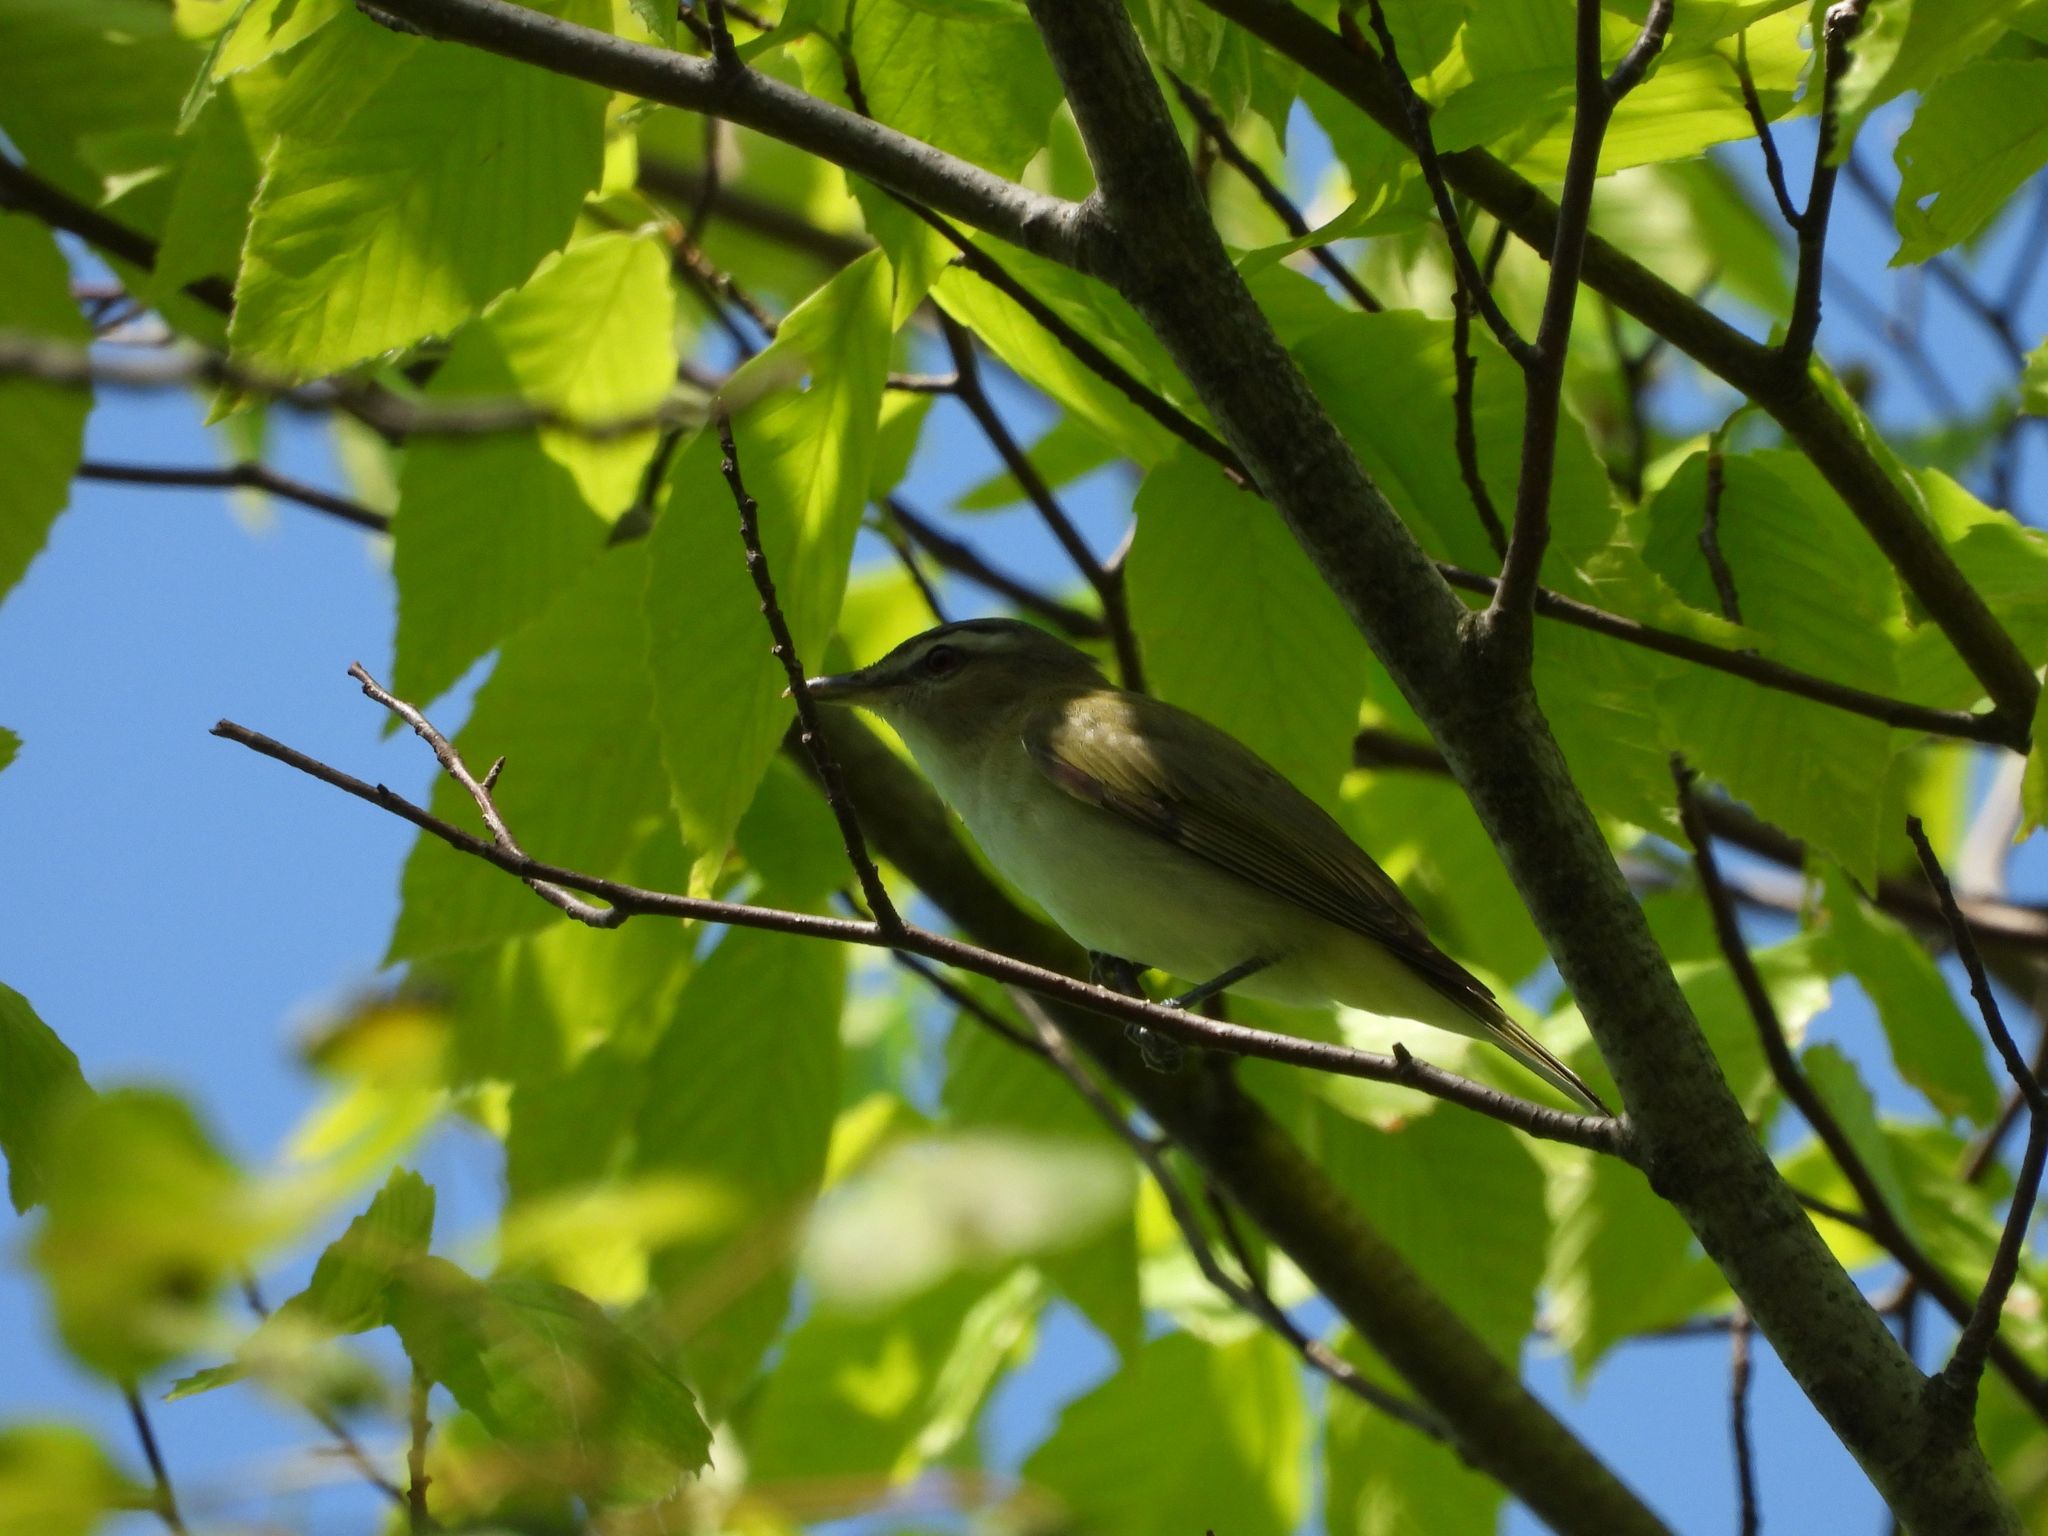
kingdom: Animalia
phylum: Chordata
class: Aves
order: Passeriformes
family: Vireonidae
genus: Vireo
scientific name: Vireo olivaceus
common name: Red-eyed vireo
